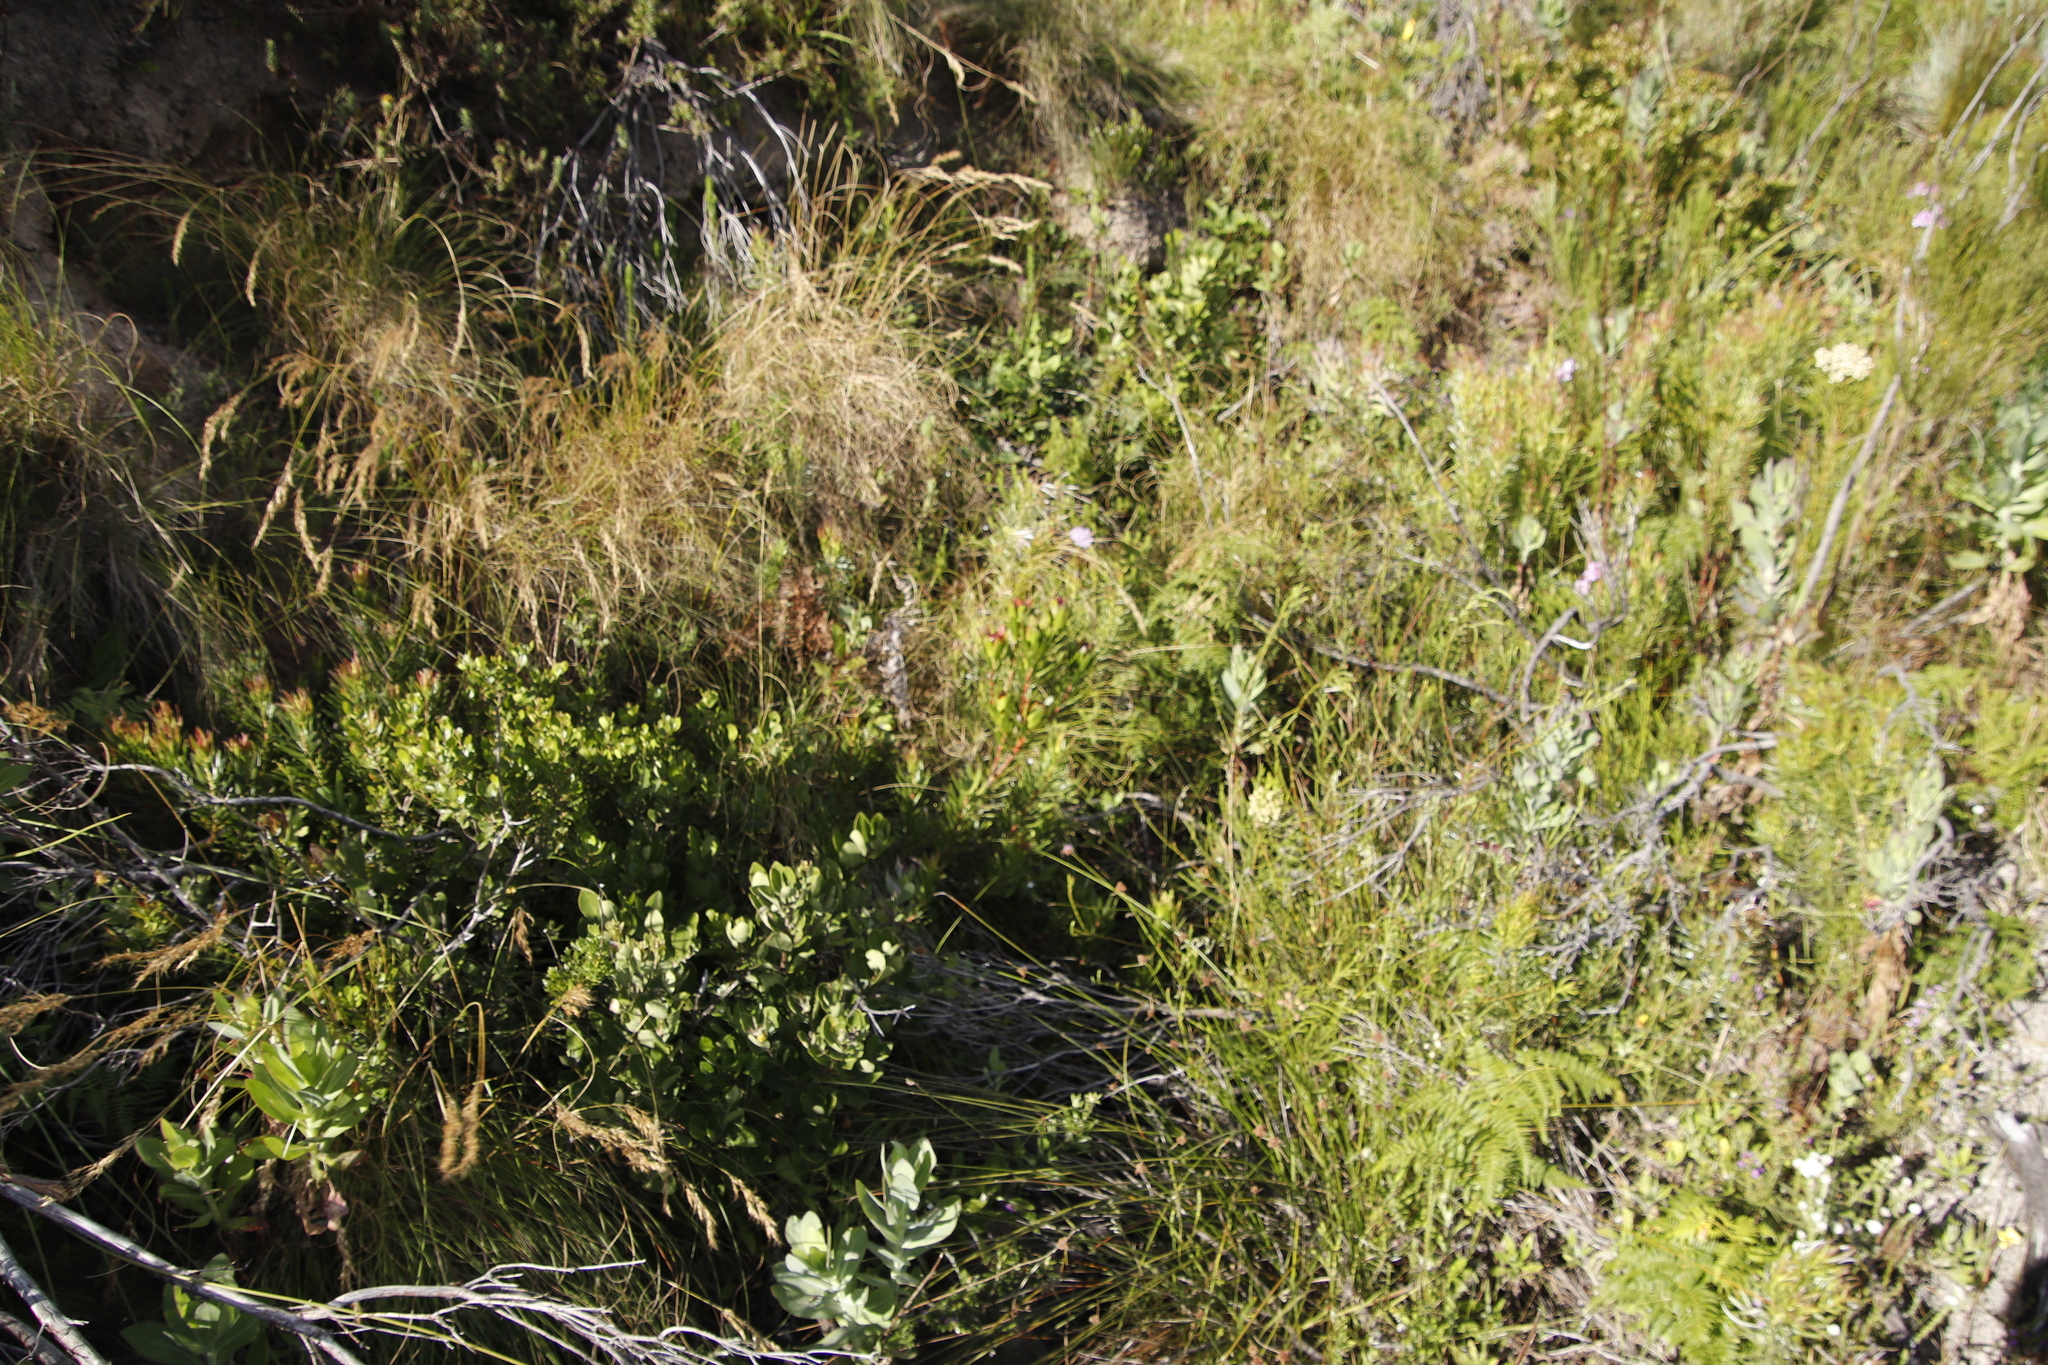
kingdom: Plantae
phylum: Tracheophyta
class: Magnoliopsida
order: Proteales
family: Proteaceae
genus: Leucadendron
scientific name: Leucadendron spissifolium
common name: Spear-leaf conebush
